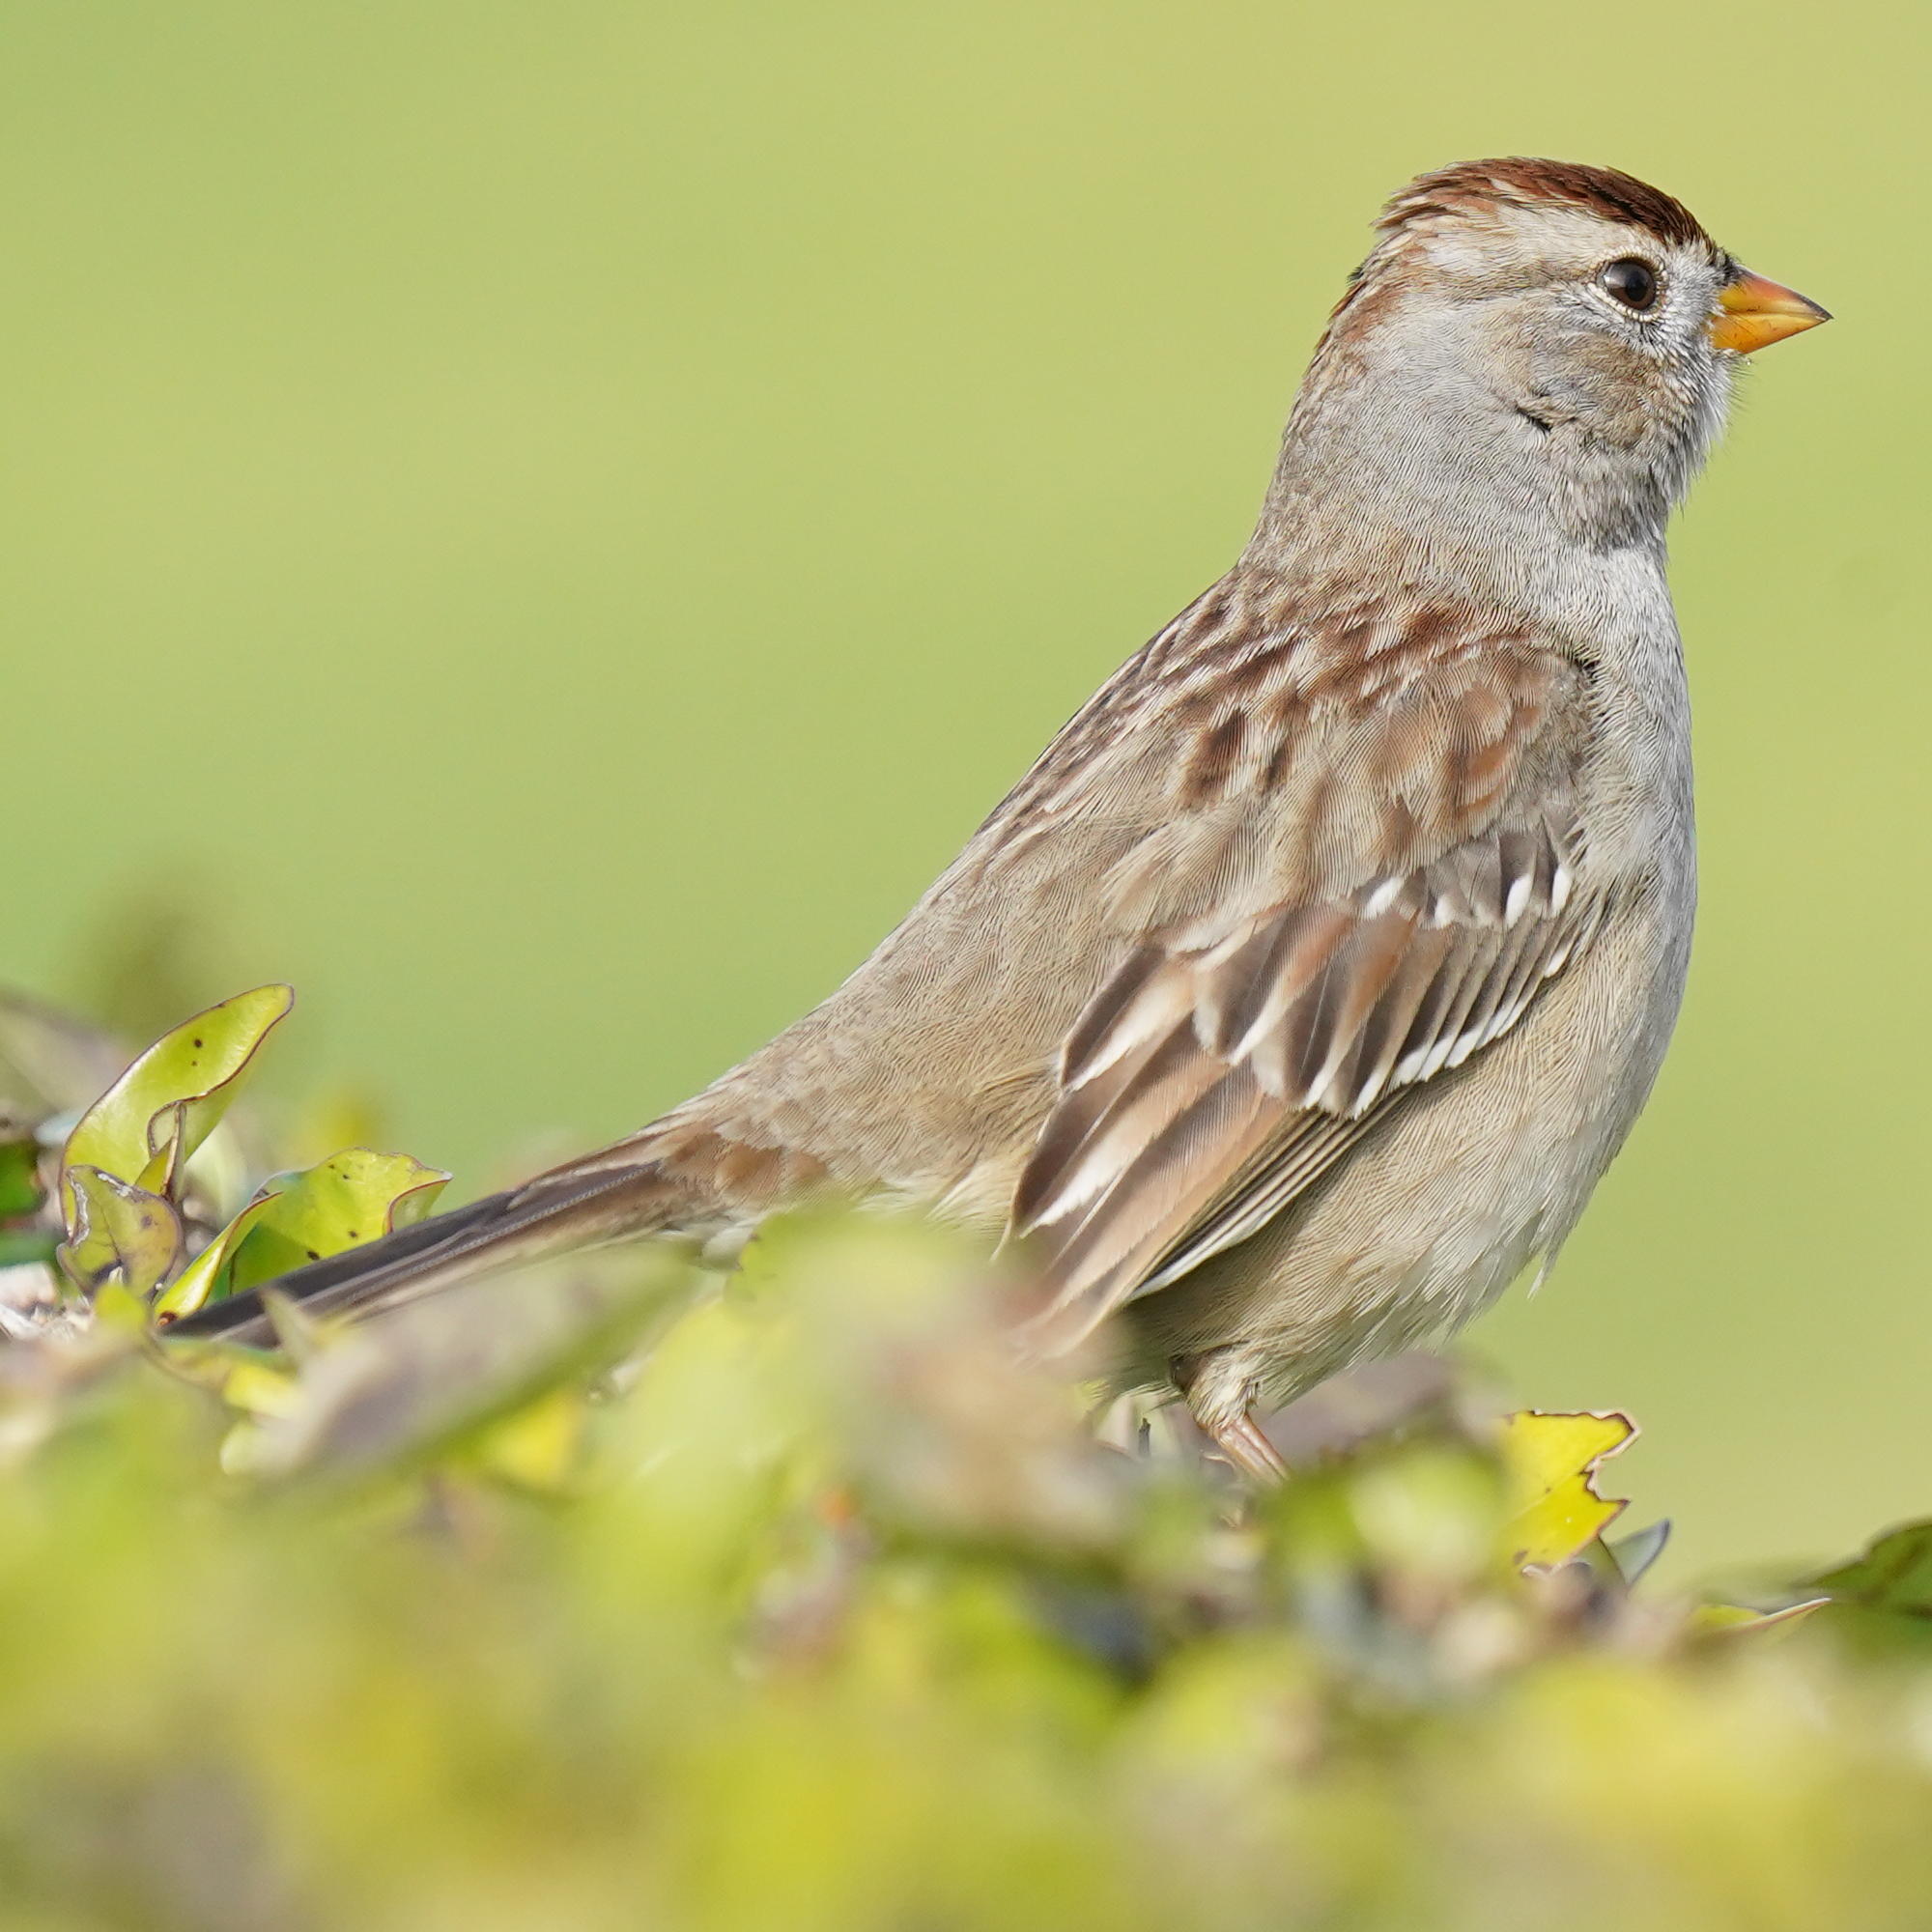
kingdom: Animalia
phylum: Chordata
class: Aves
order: Passeriformes
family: Passerellidae
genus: Zonotrichia
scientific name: Zonotrichia leucophrys
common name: White-crowned sparrow
